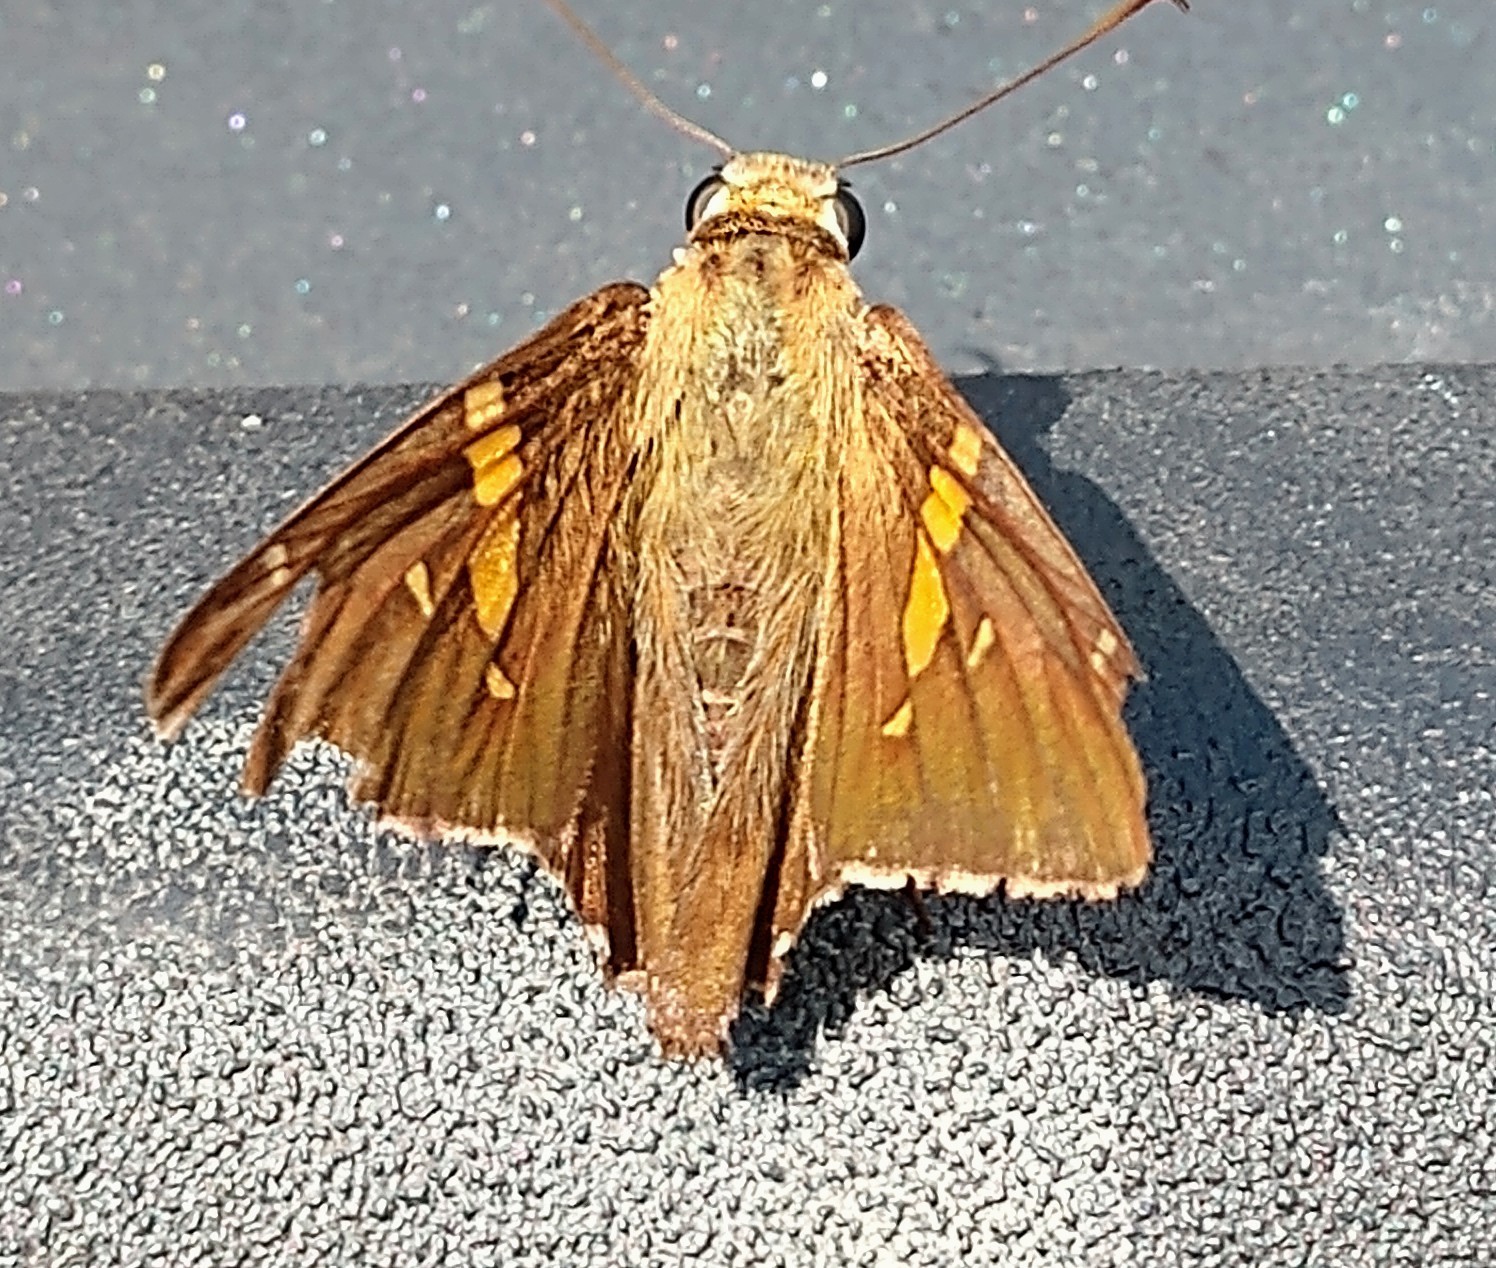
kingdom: Animalia
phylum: Arthropoda
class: Insecta
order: Lepidoptera
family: Hesperiidae
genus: Epargyreus
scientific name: Epargyreus clarus
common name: Silver-spotted skipper
